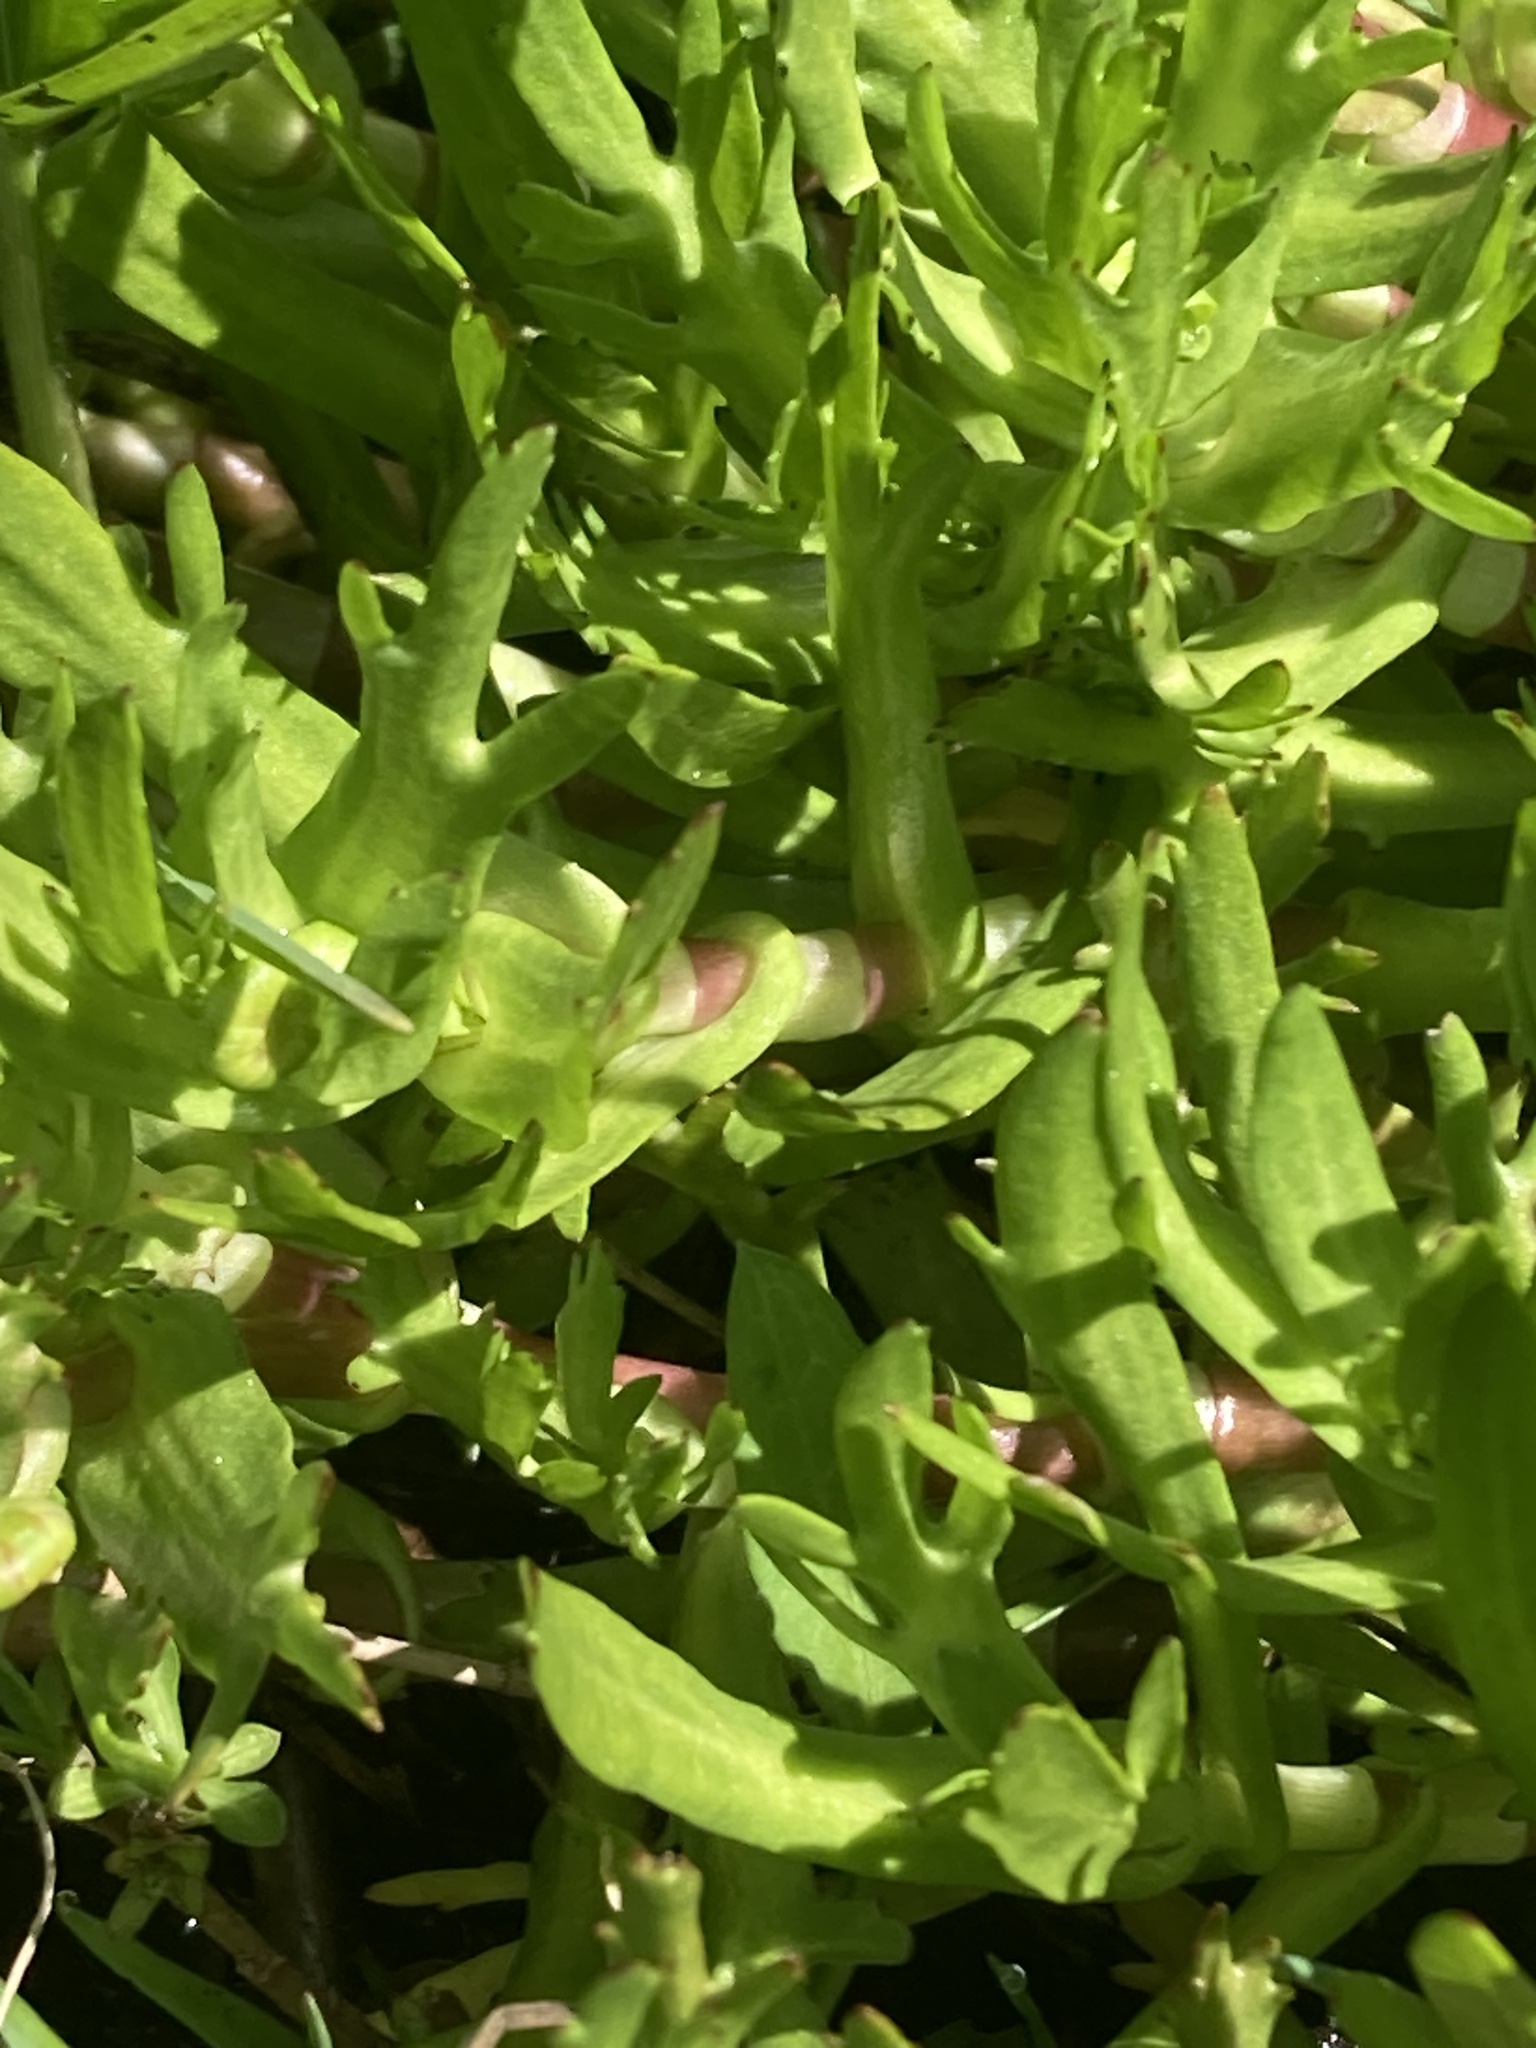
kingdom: Plantae
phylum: Tracheophyta
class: Magnoliopsida
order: Asterales
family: Asteraceae
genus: Cotula
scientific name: Cotula coronopifolia
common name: Buttonweed
